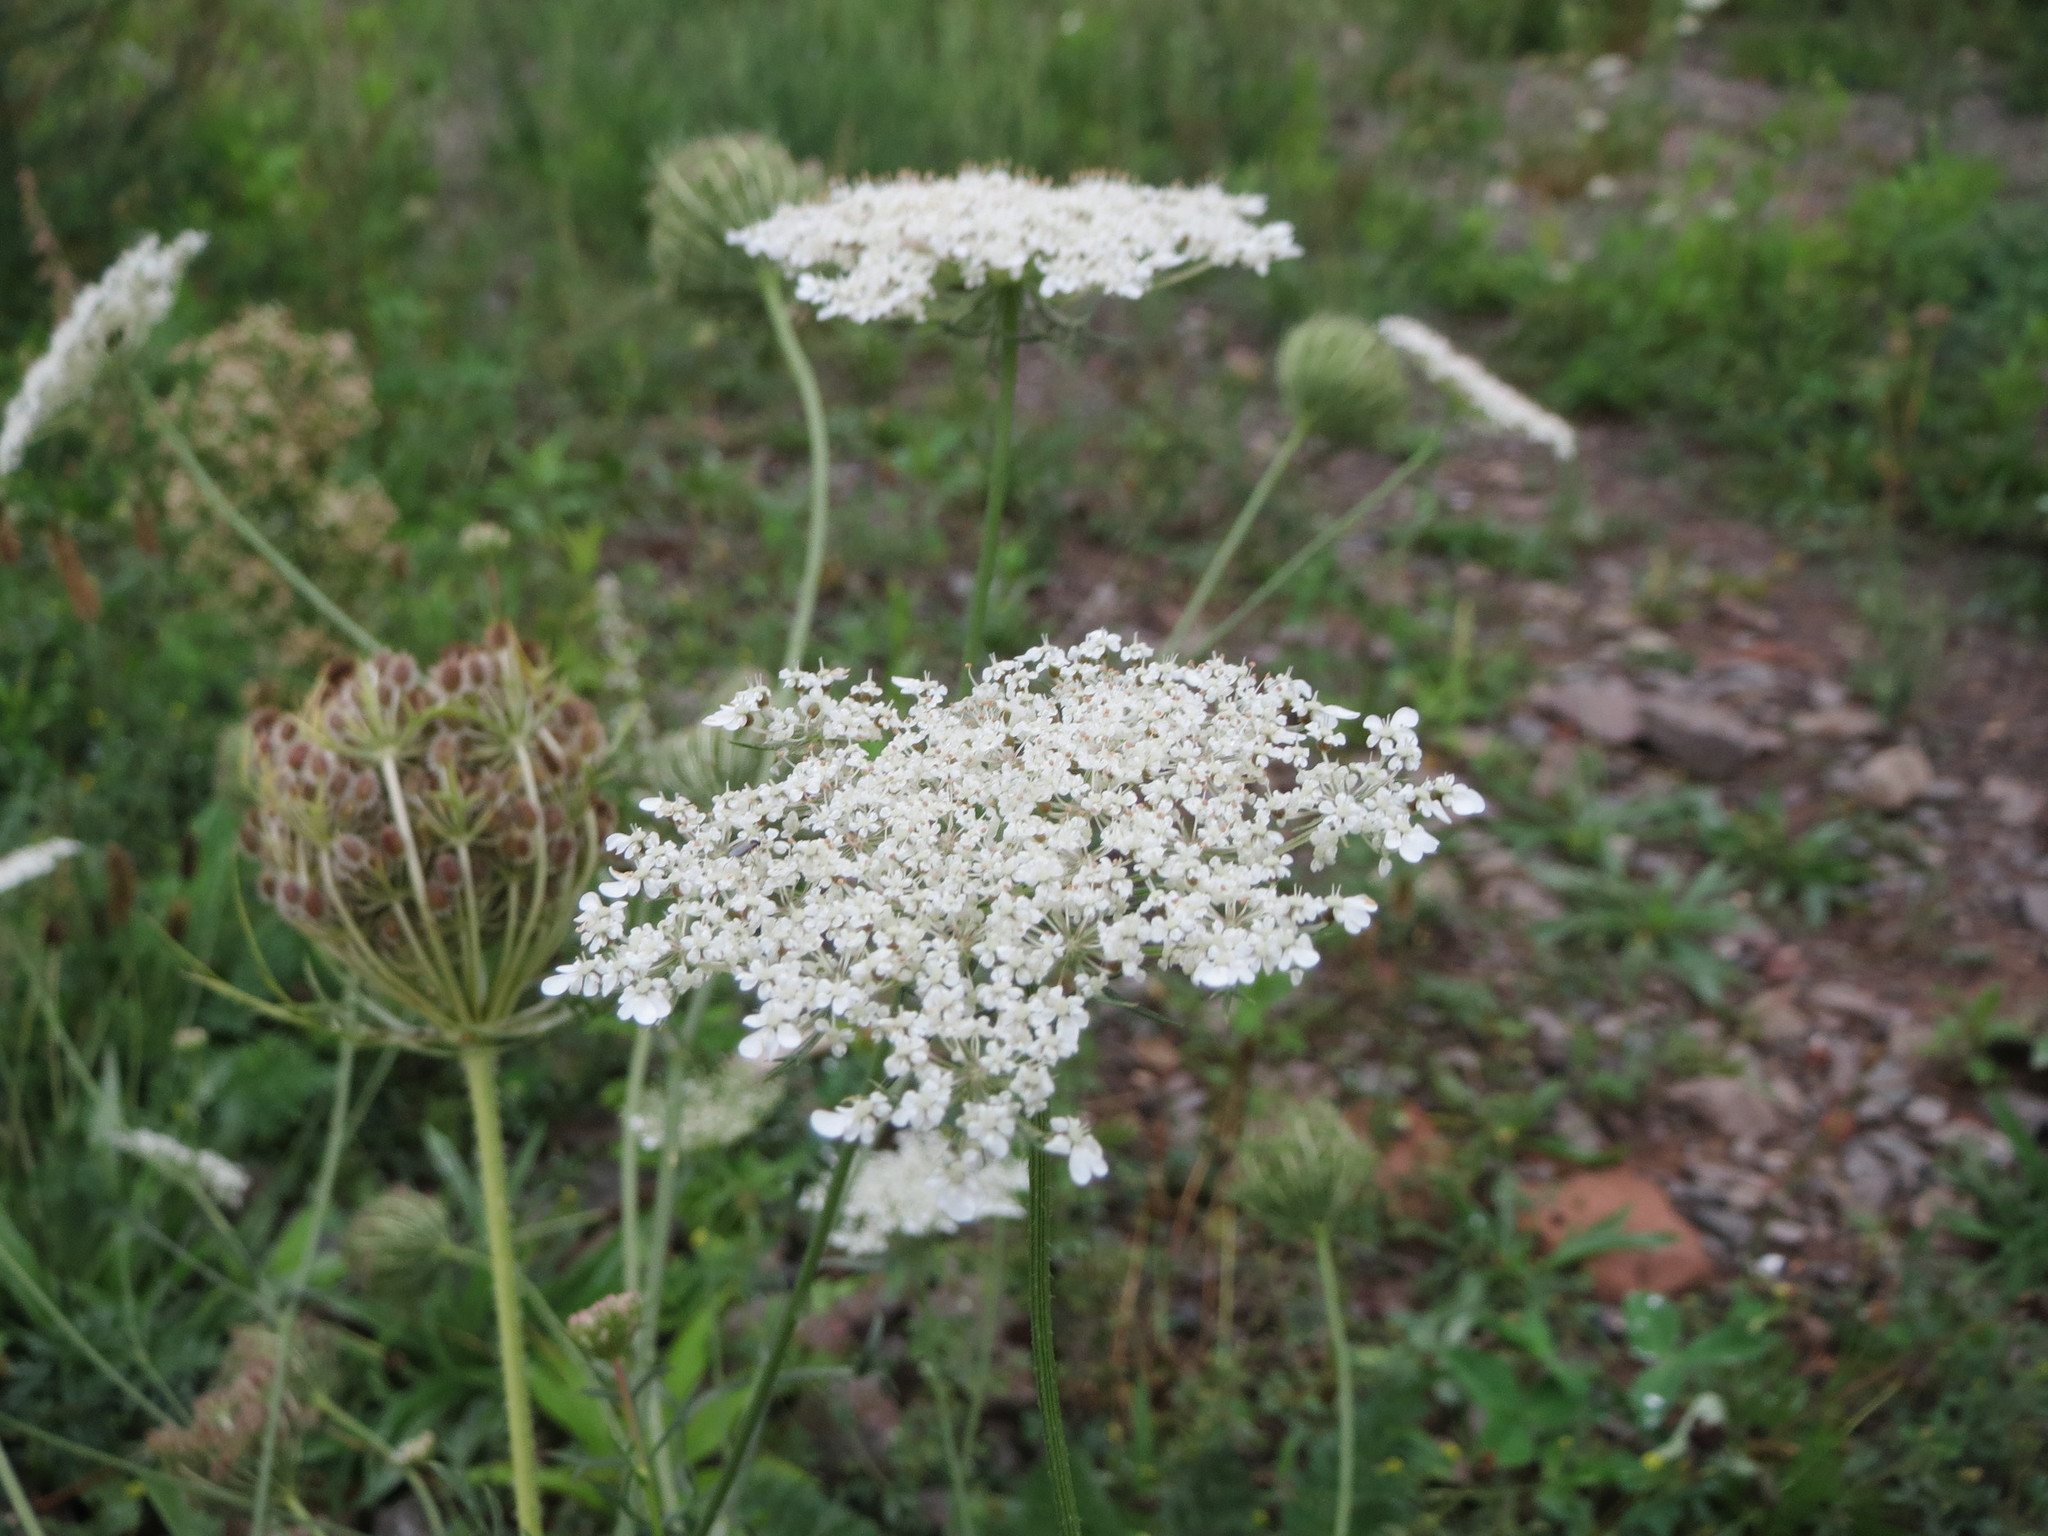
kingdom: Plantae
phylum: Tracheophyta
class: Magnoliopsida
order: Apiales
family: Apiaceae
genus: Daucus
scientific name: Daucus carota
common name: Wild carrot
